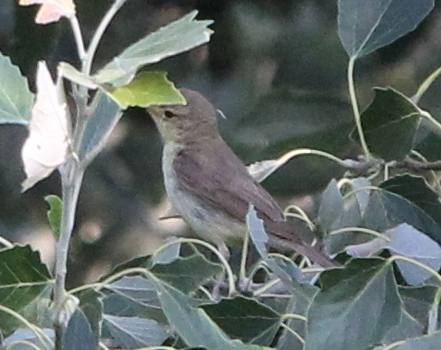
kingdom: Animalia
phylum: Chordata
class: Aves
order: Passeriformes
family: Acrocephalidae
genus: Hippolais
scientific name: Hippolais polyglotta
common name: Melodious warbler
